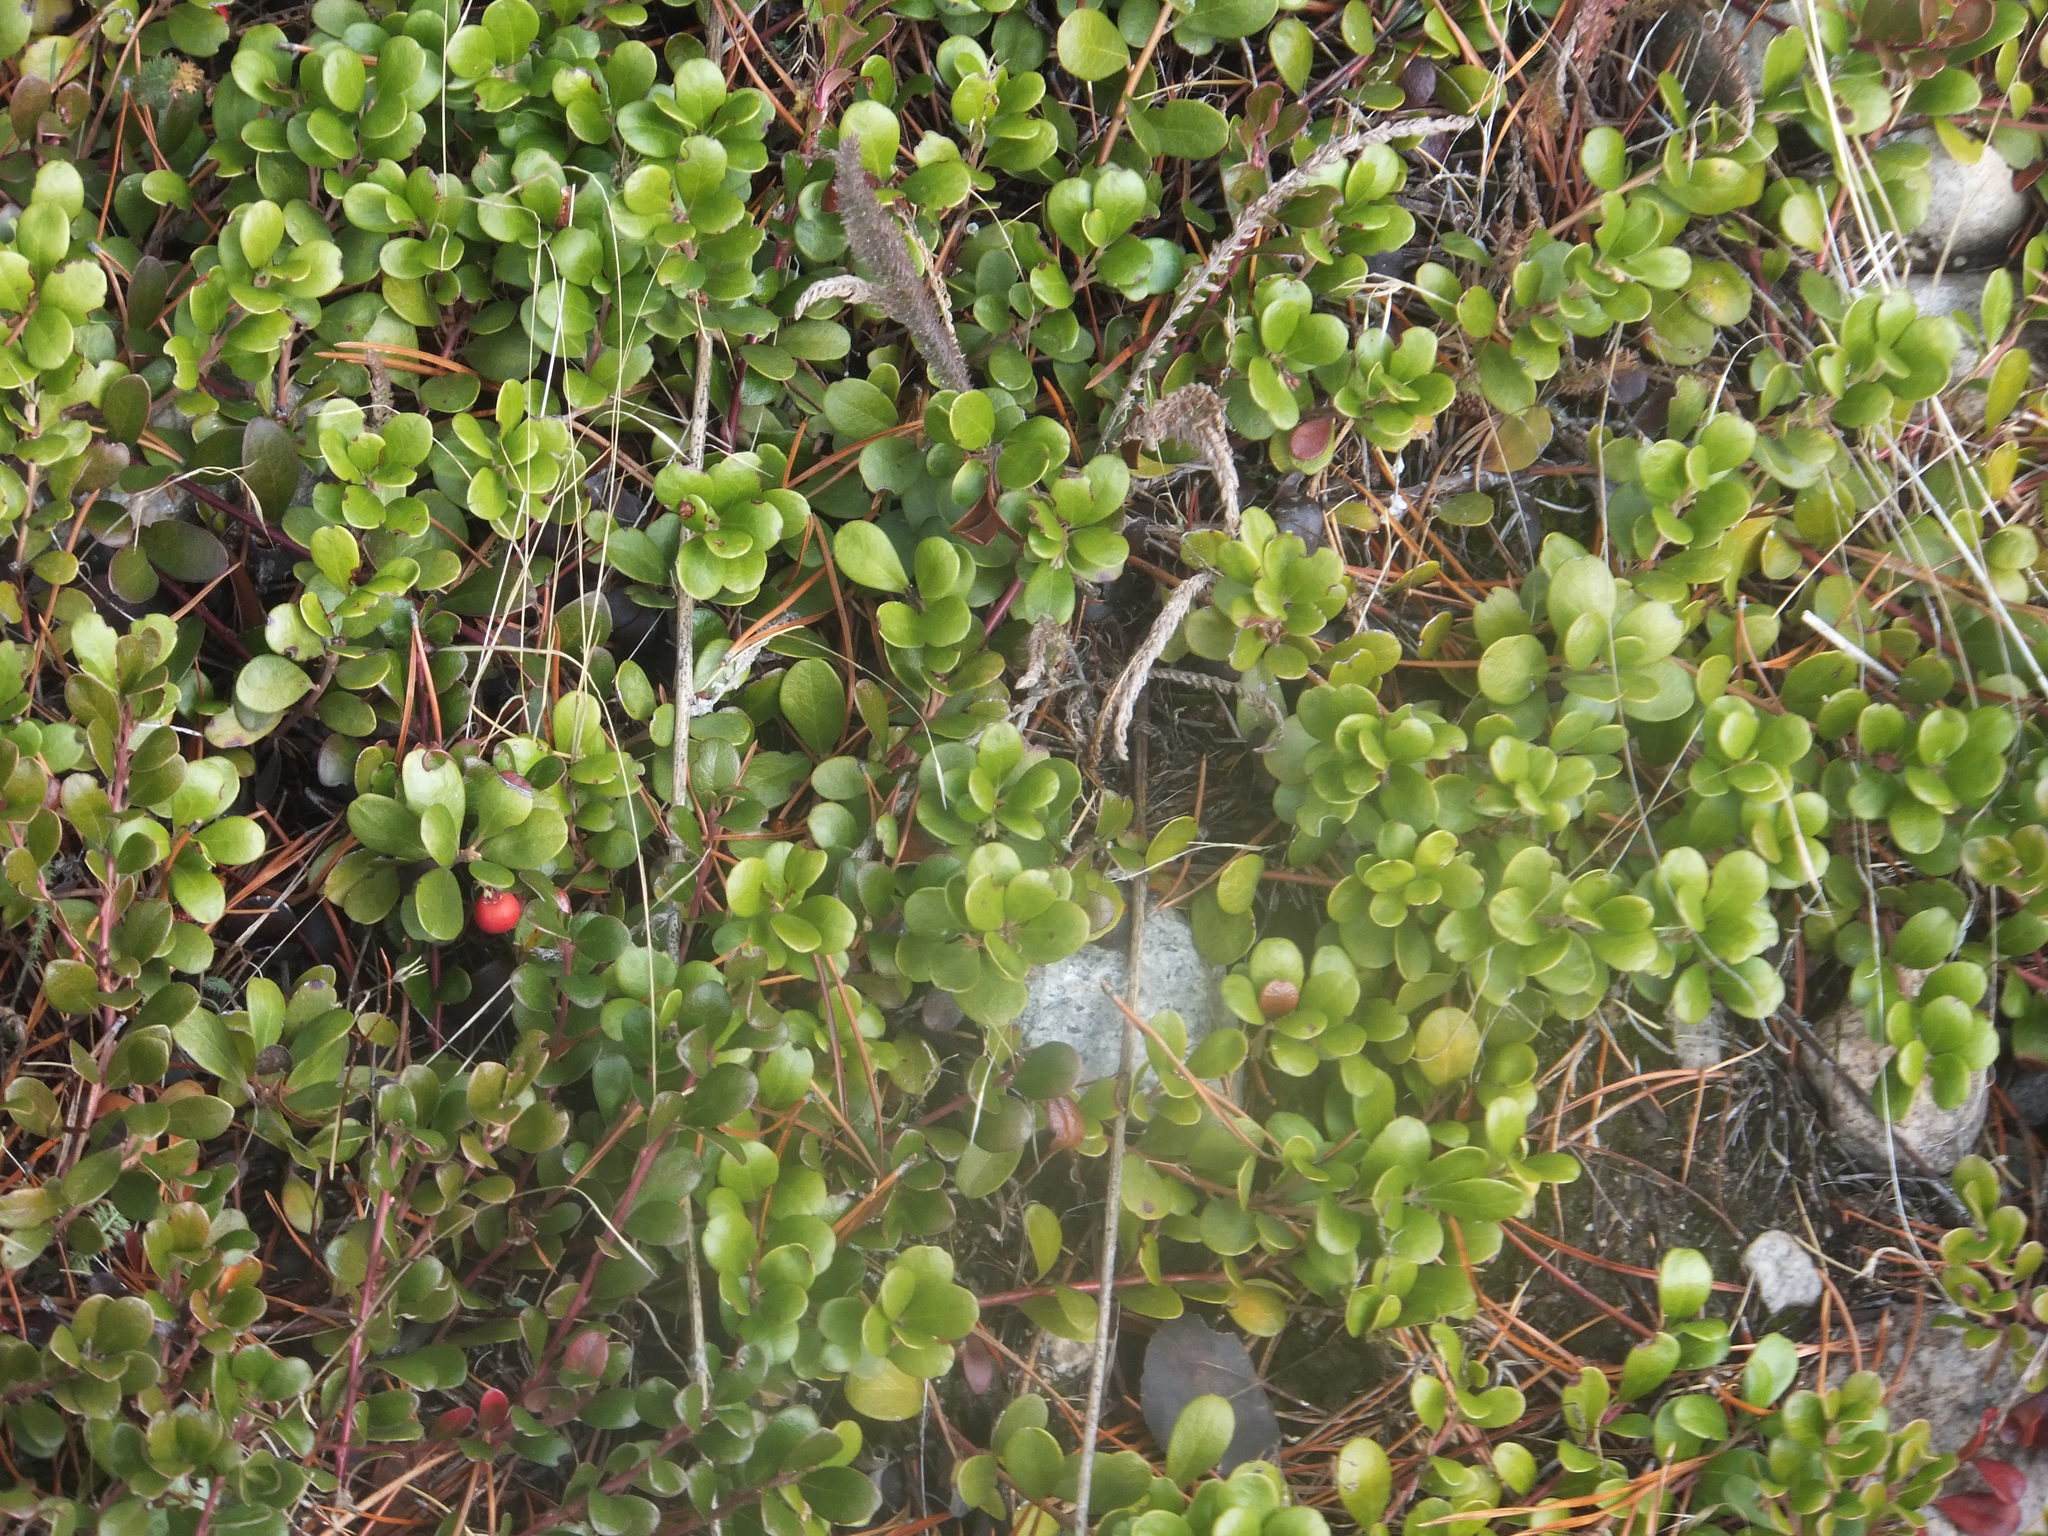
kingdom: Plantae
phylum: Tracheophyta
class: Magnoliopsida
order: Ericales
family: Ericaceae
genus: Arctostaphylos
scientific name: Arctostaphylos uva-ursi
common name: Bearberry
